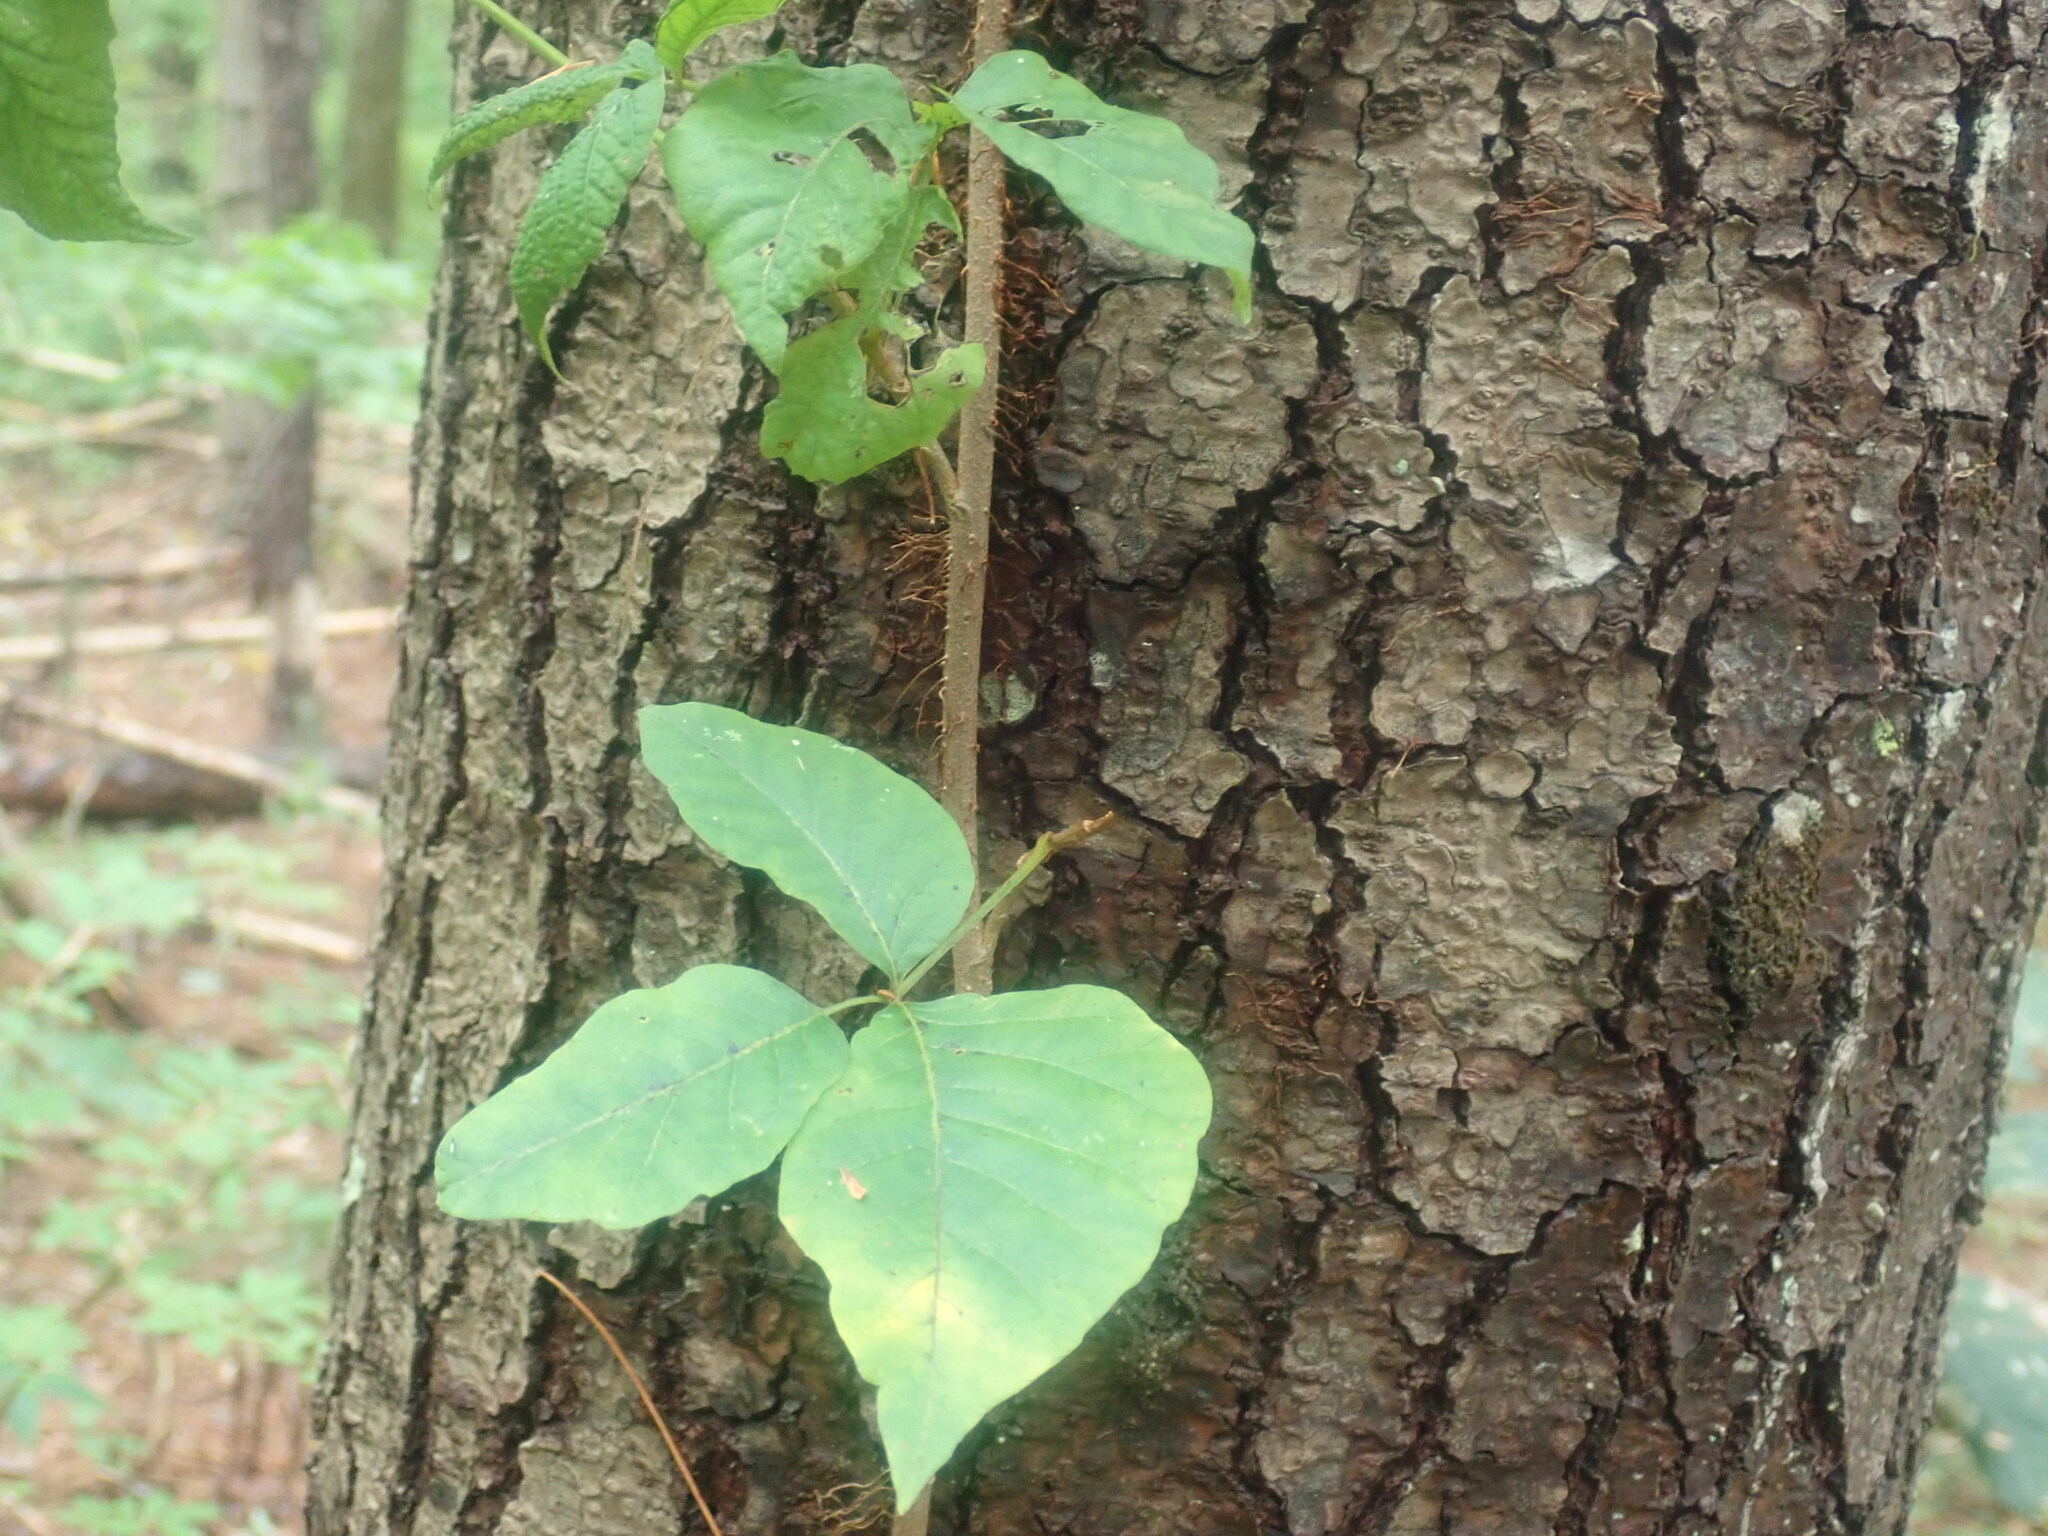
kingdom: Plantae
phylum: Tracheophyta
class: Magnoliopsida
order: Sapindales
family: Anacardiaceae
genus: Toxicodendron
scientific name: Toxicodendron radicans
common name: Poison ivy
